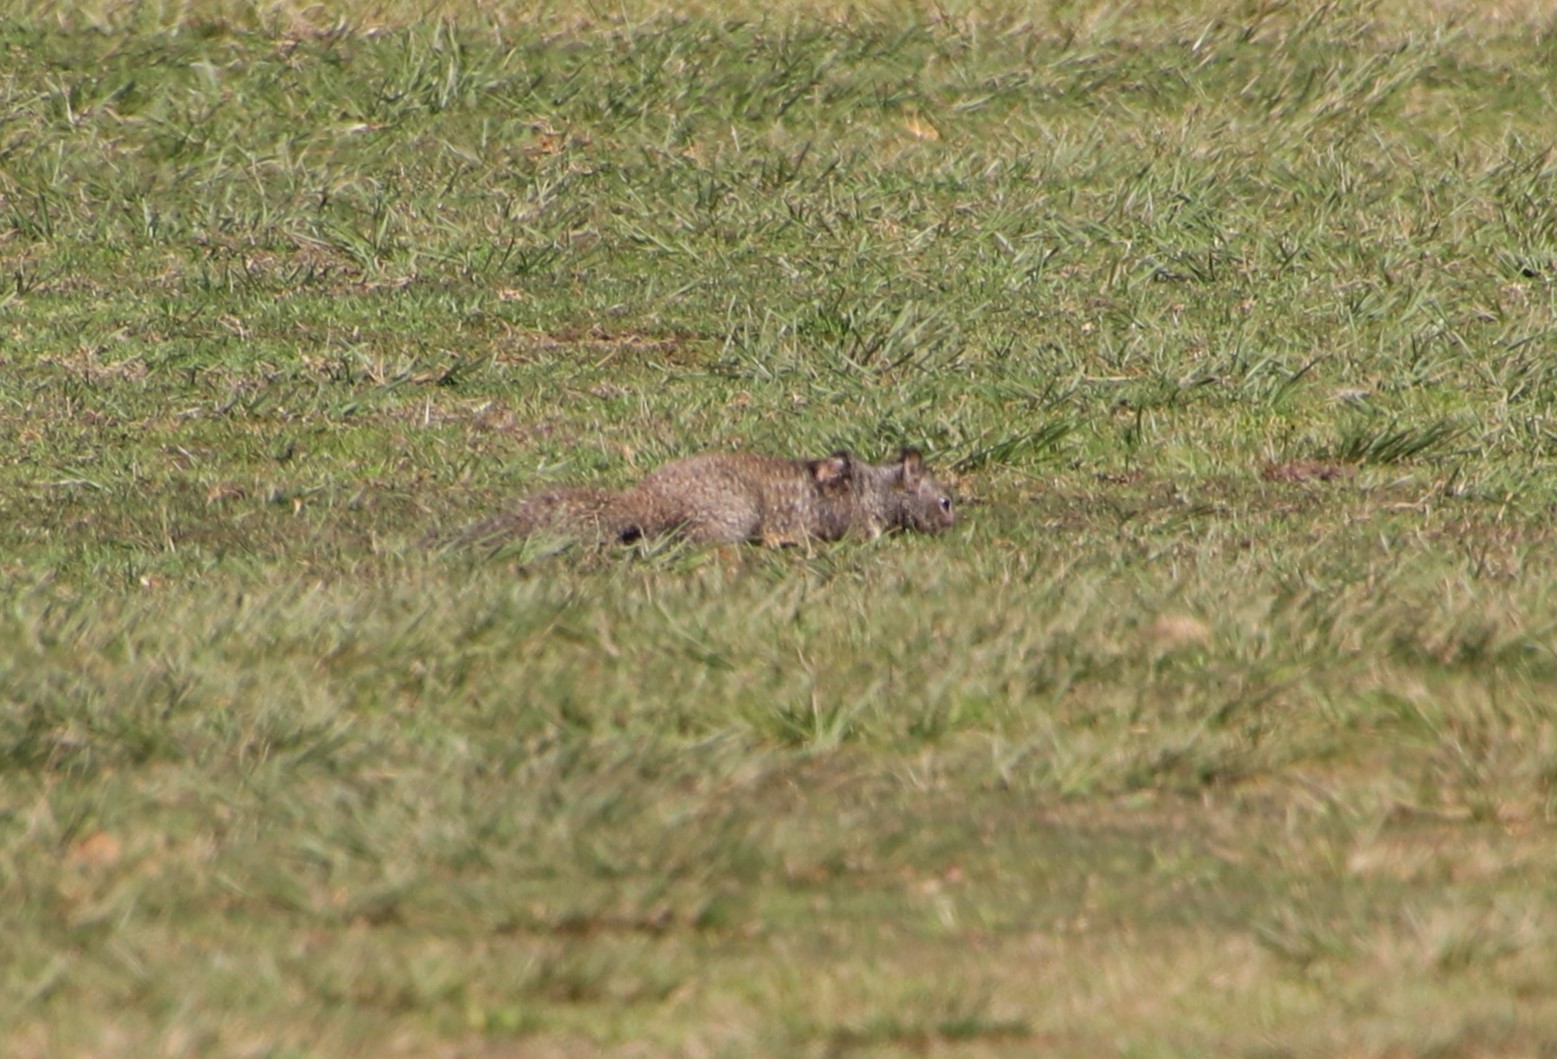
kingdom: Animalia
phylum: Chordata
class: Mammalia
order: Rodentia
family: Sciuridae
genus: Otospermophilus
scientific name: Otospermophilus beecheyi
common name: California ground squirrel
